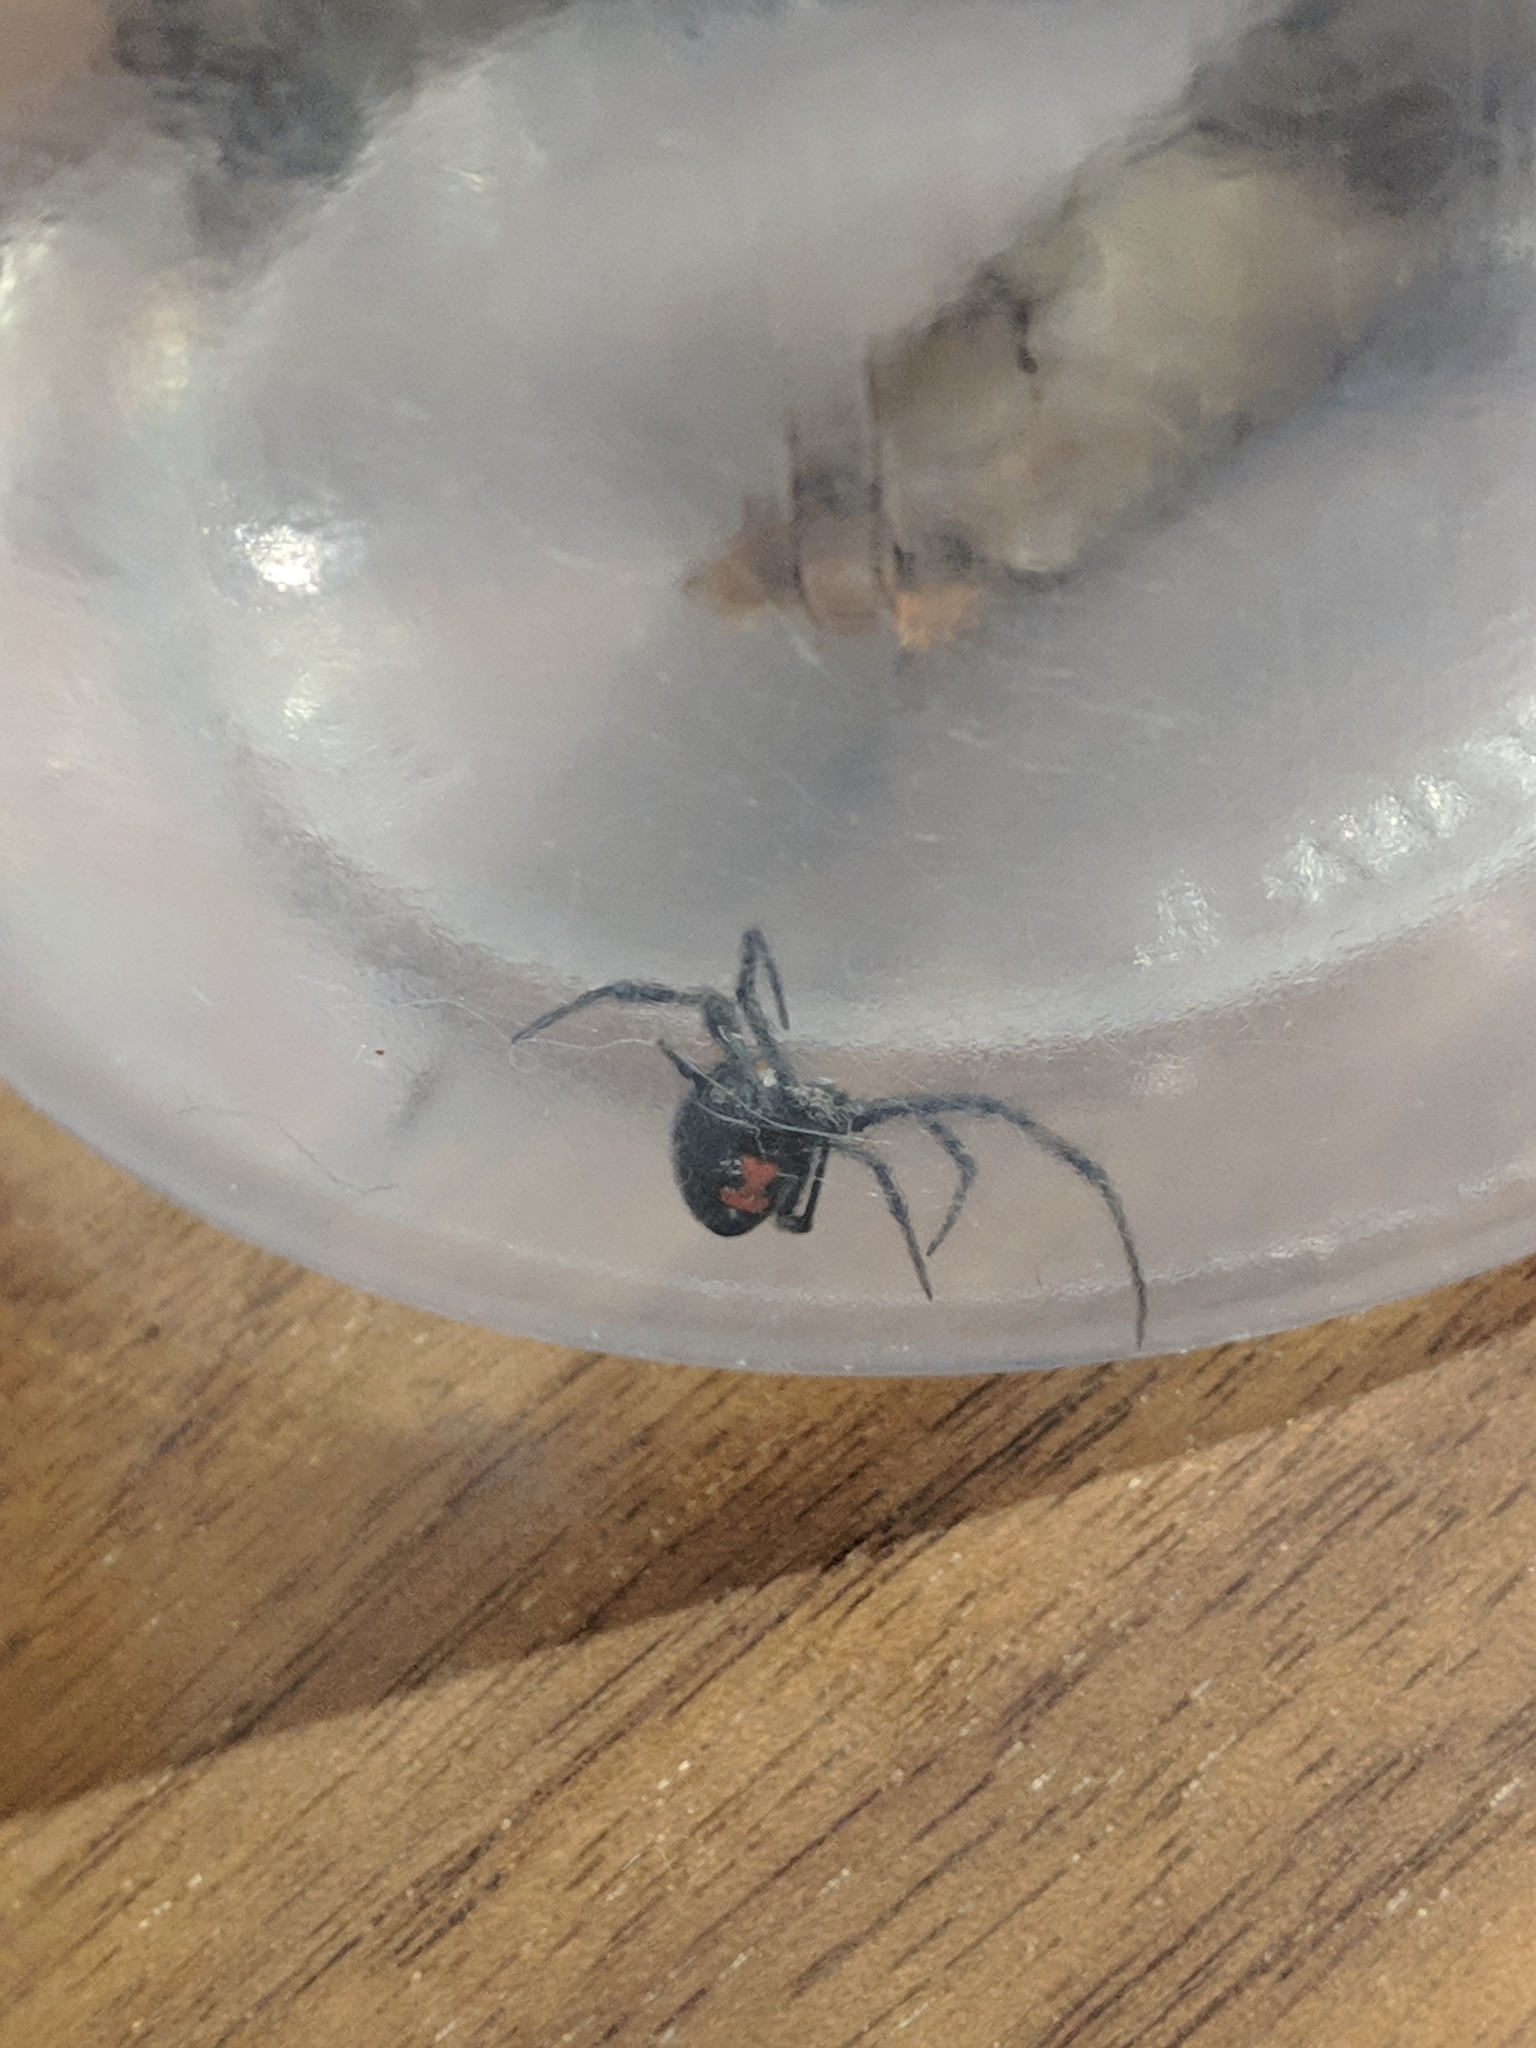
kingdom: Animalia
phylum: Arthropoda
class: Arachnida
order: Araneae
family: Theridiidae
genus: Latrodectus
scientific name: Latrodectus mactans
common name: Cobweb spiders
